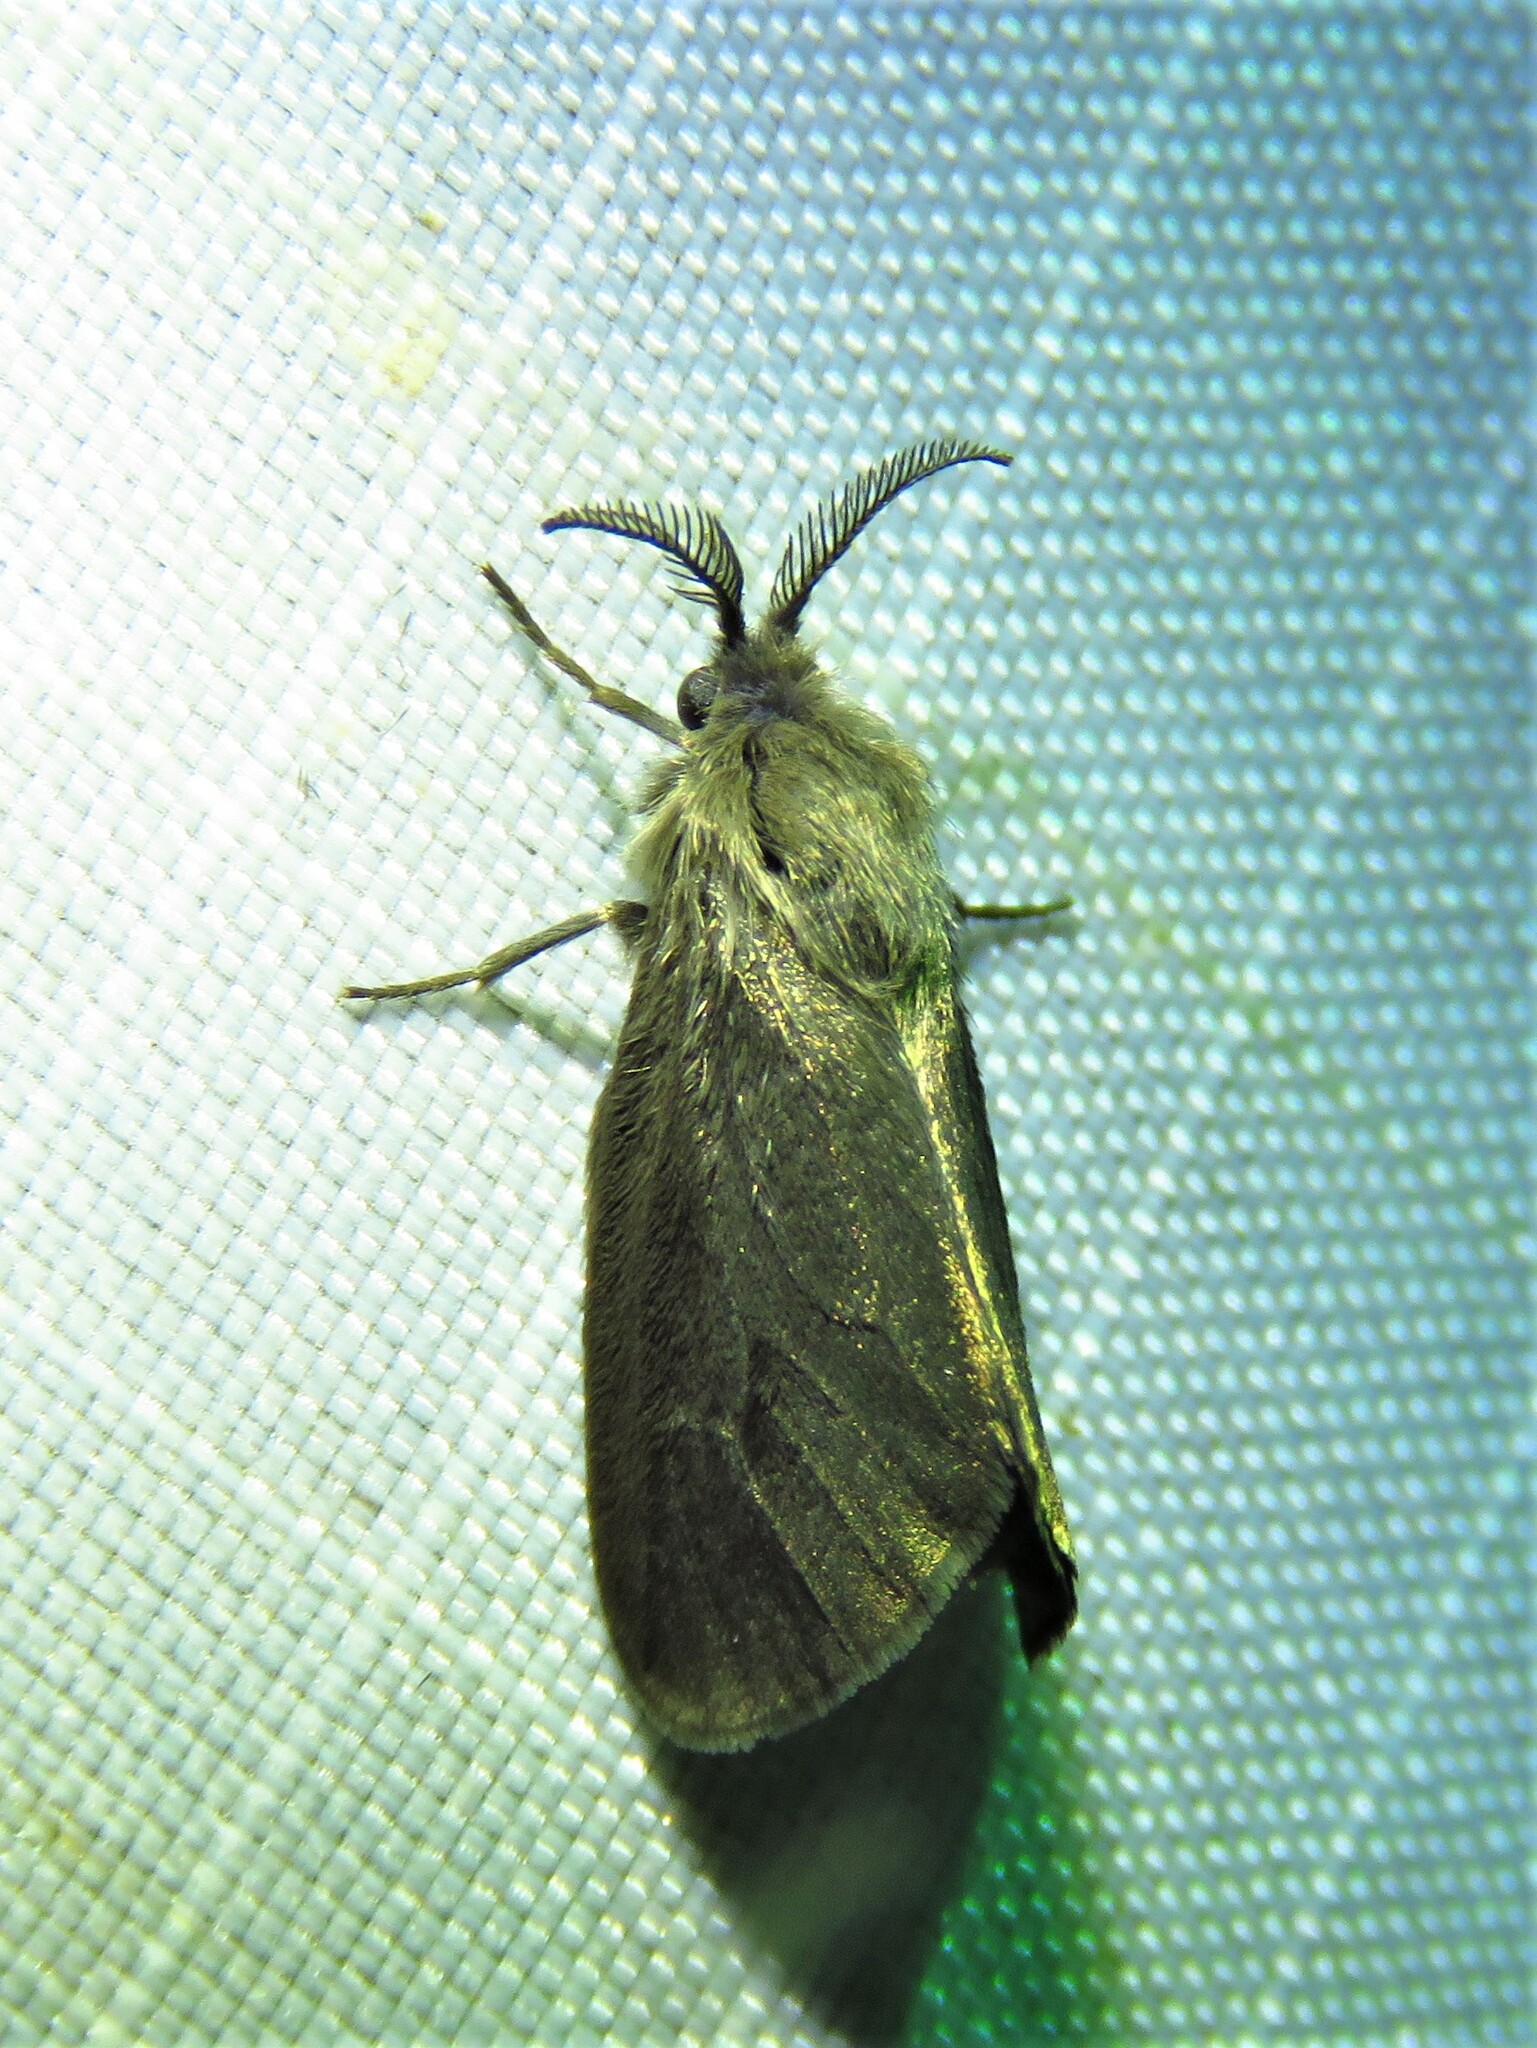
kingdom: Animalia
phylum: Arthropoda
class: Insecta
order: Lepidoptera
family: Psychidae
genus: Cryptothelea
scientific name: Cryptothelea gloverii
